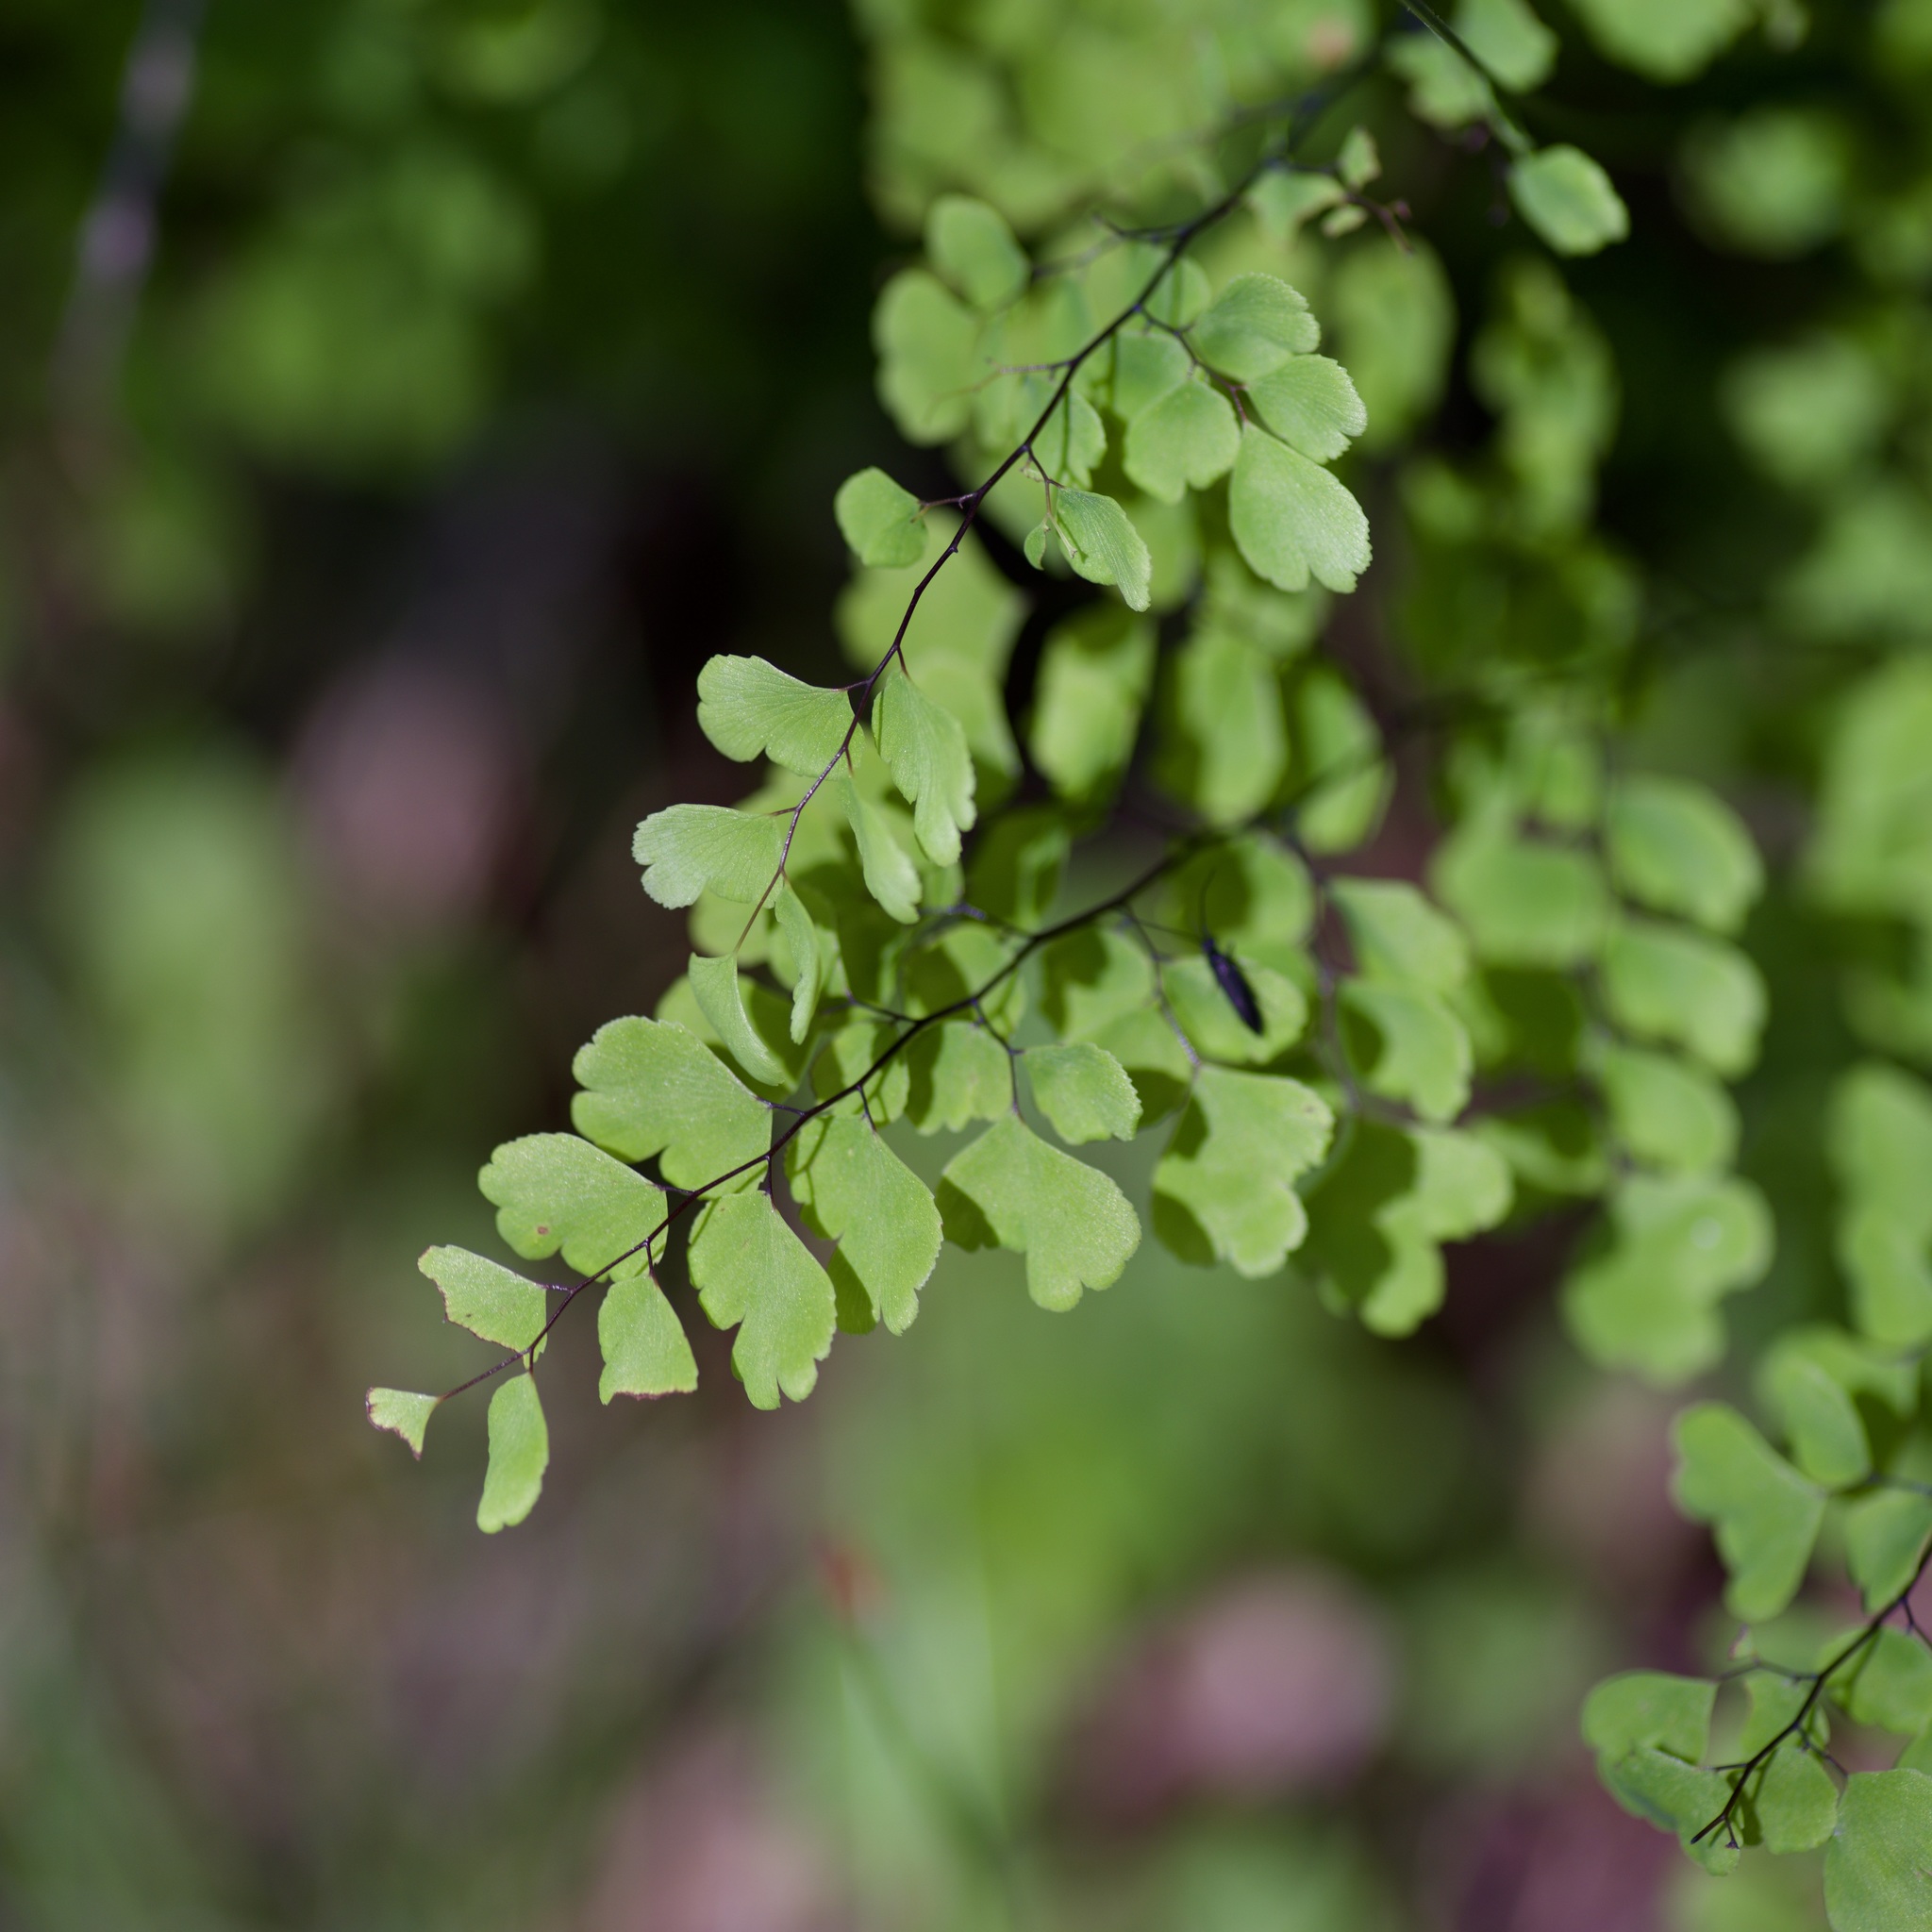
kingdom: Plantae
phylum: Tracheophyta
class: Polypodiopsida
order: Polypodiales
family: Pteridaceae
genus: Adiantum
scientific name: Adiantum capillus-veneris
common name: Maidenhair fern
